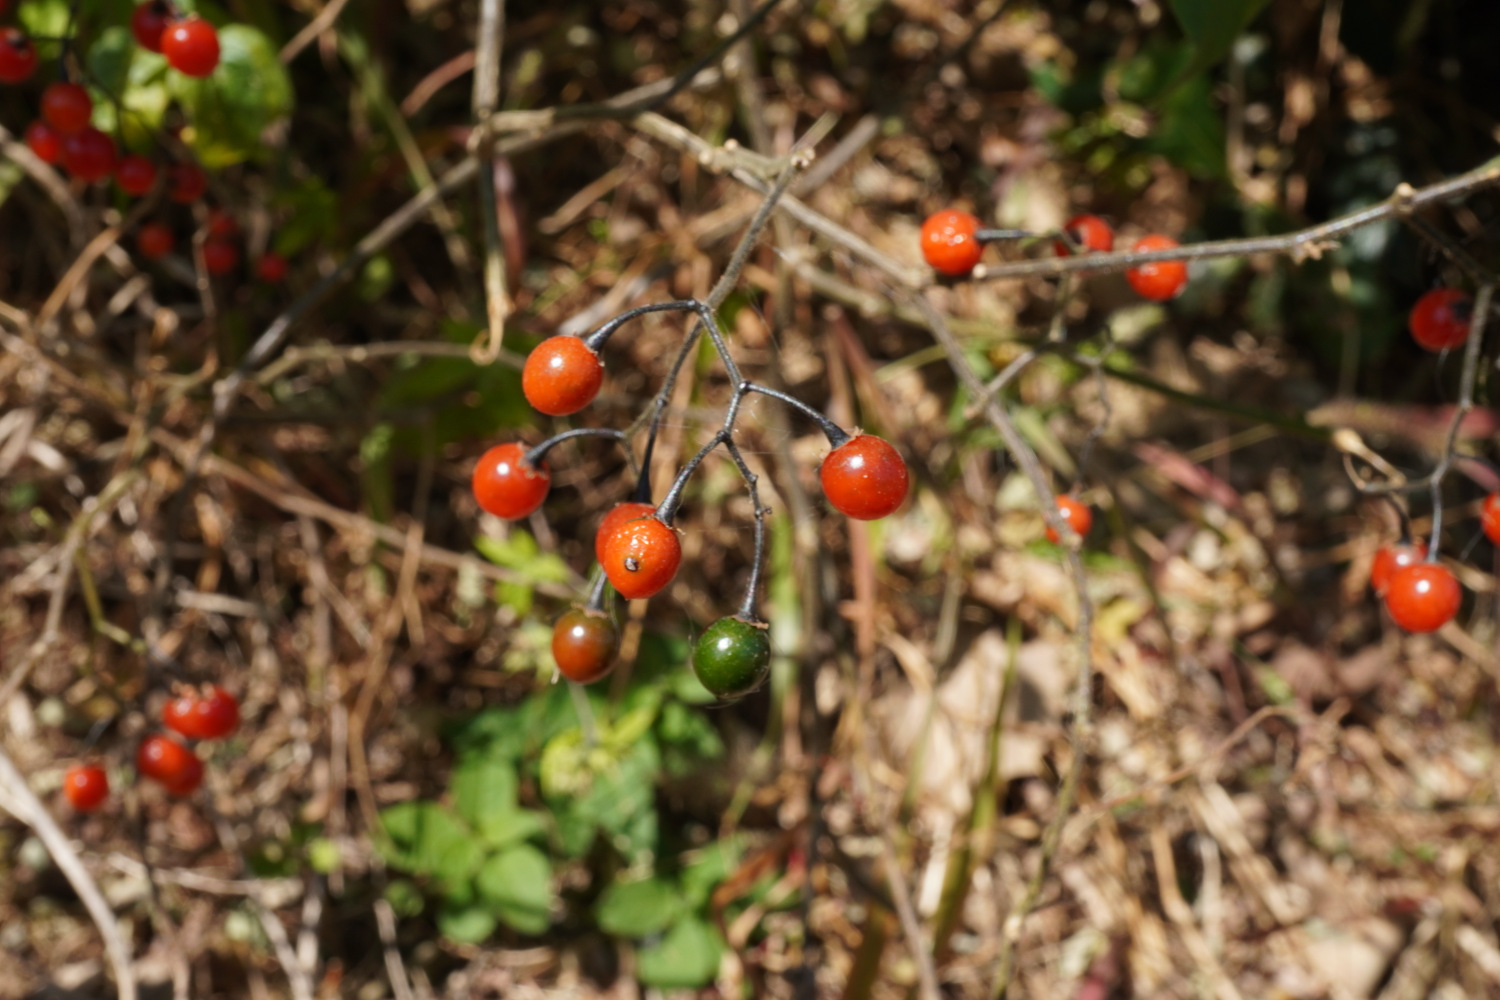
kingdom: Plantae
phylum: Tracheophyta
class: Magnoliopsida
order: Solanales
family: Solanaceae
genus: Solanum
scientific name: Solanum lyratum
